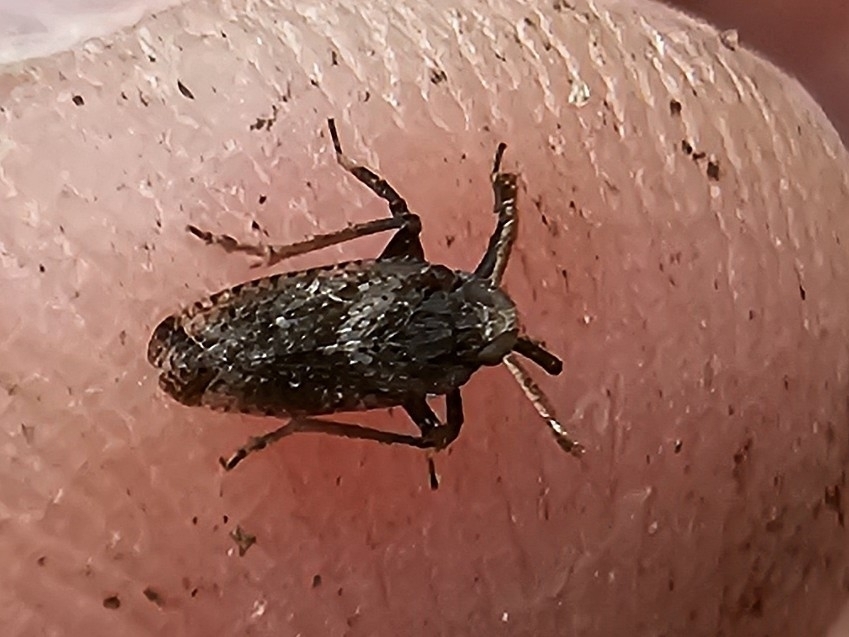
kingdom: Animalia
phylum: Arthropoda
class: Insecta
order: Hemiptera
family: Delphacidae
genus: Asiraca
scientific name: Asiraca clavicornis
